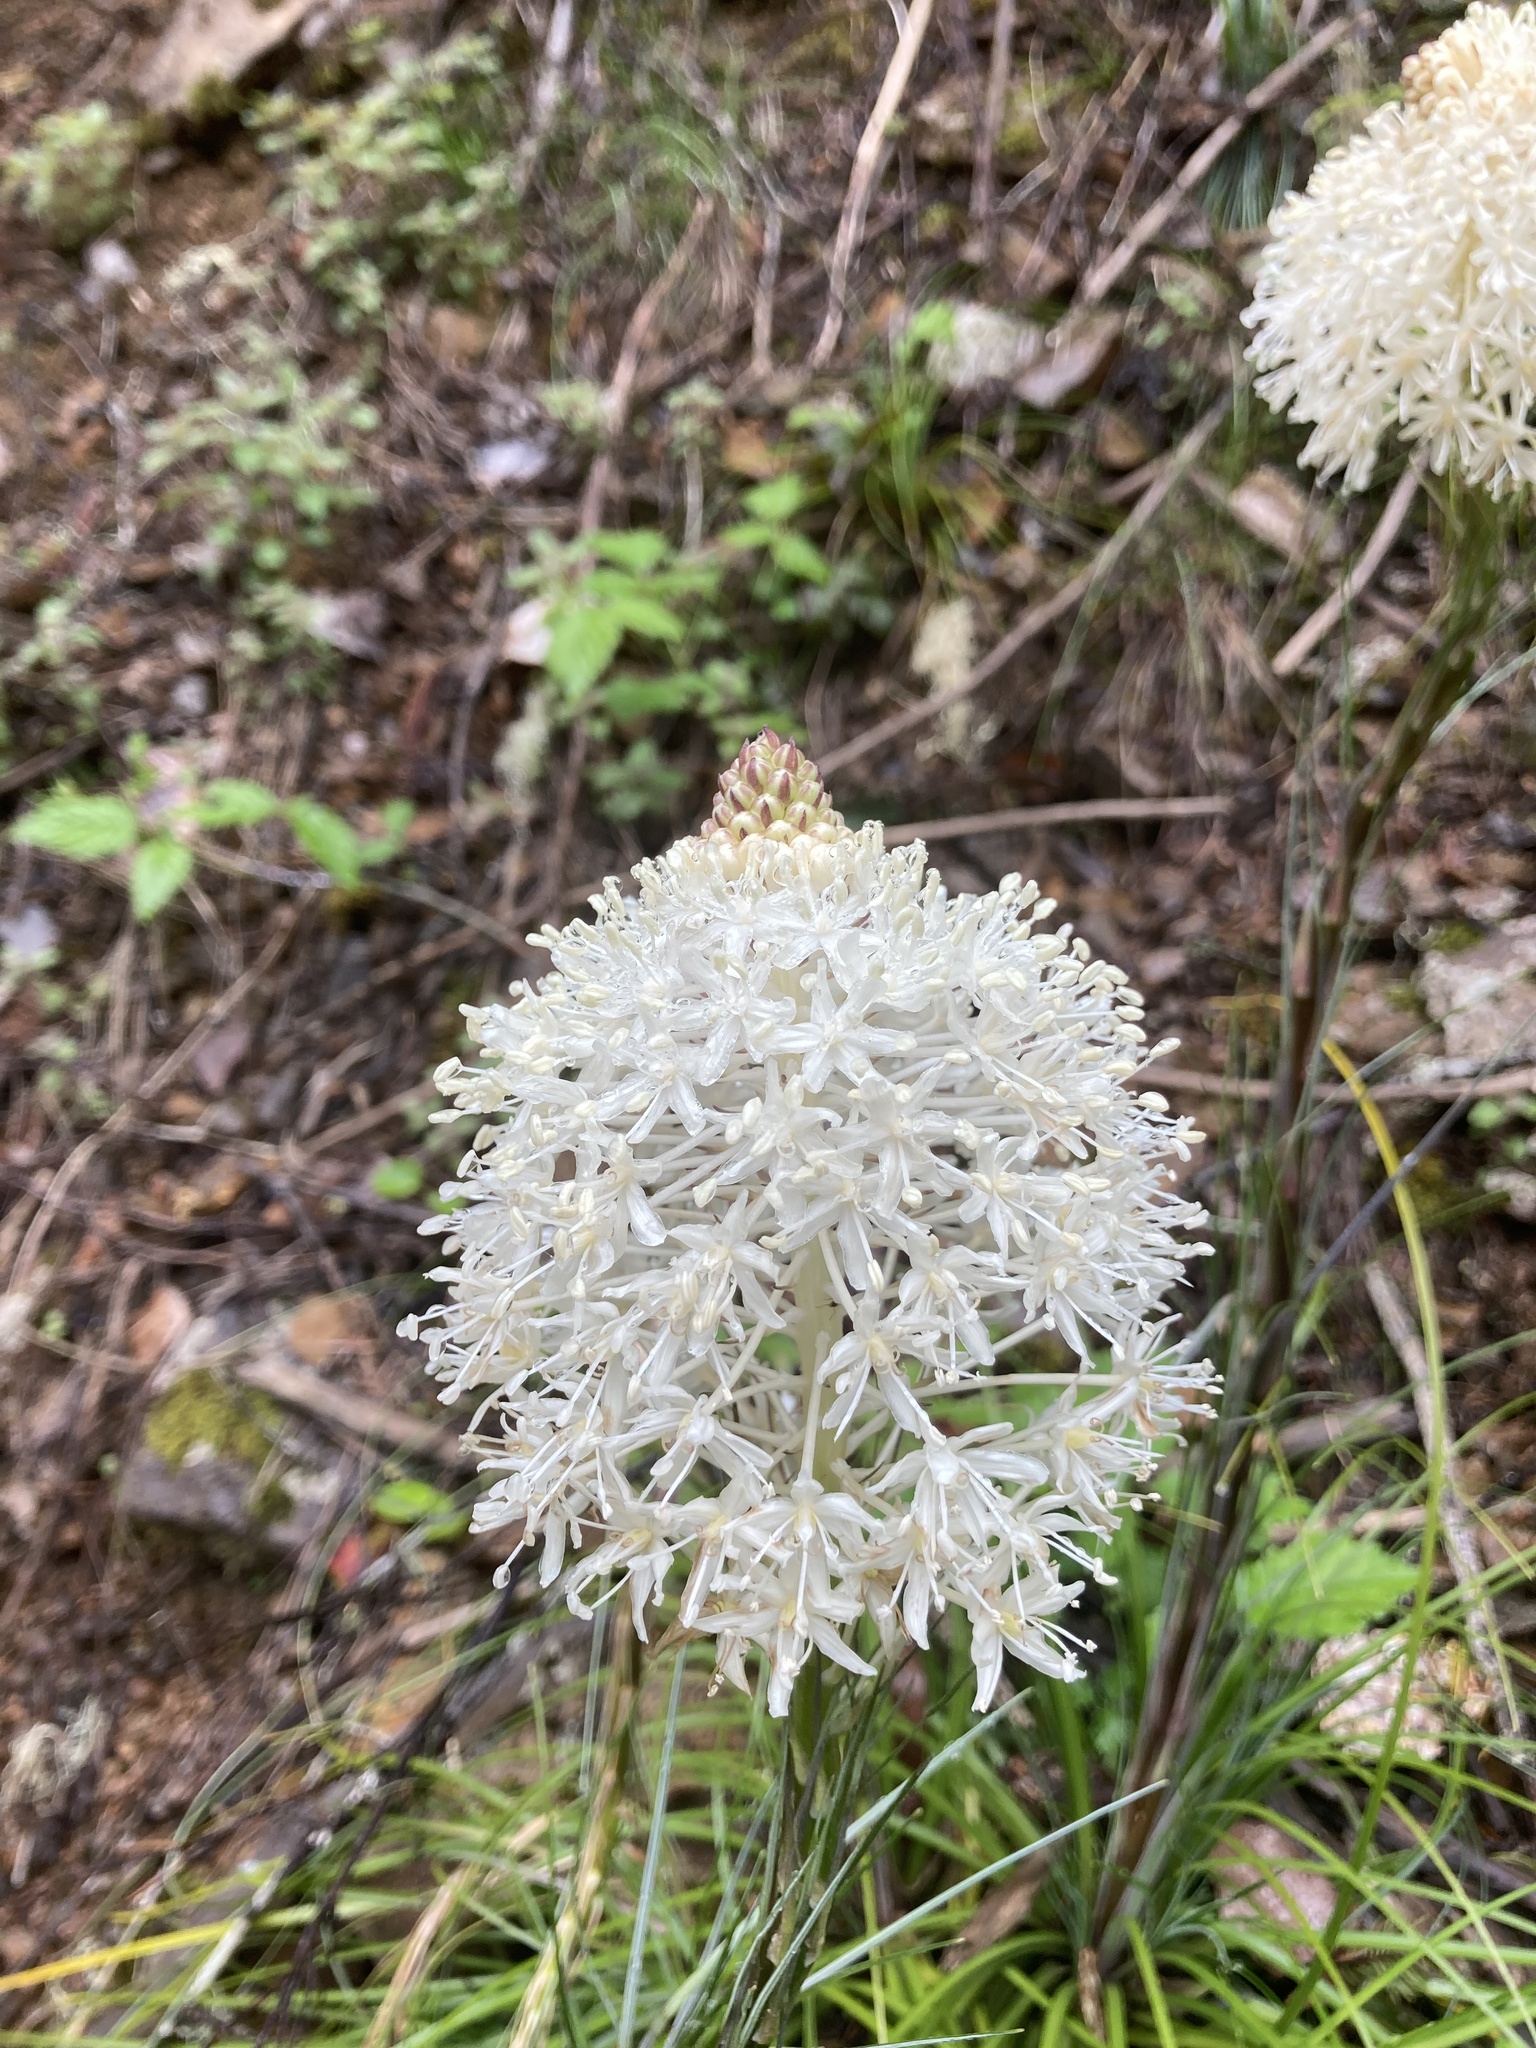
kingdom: Plantae
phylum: Tracheophyta
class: Liliopsida
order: Liliales
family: Melanthiaceae
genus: Xerophyllum
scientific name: Xerophyllum tenax
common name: Bear-grass
